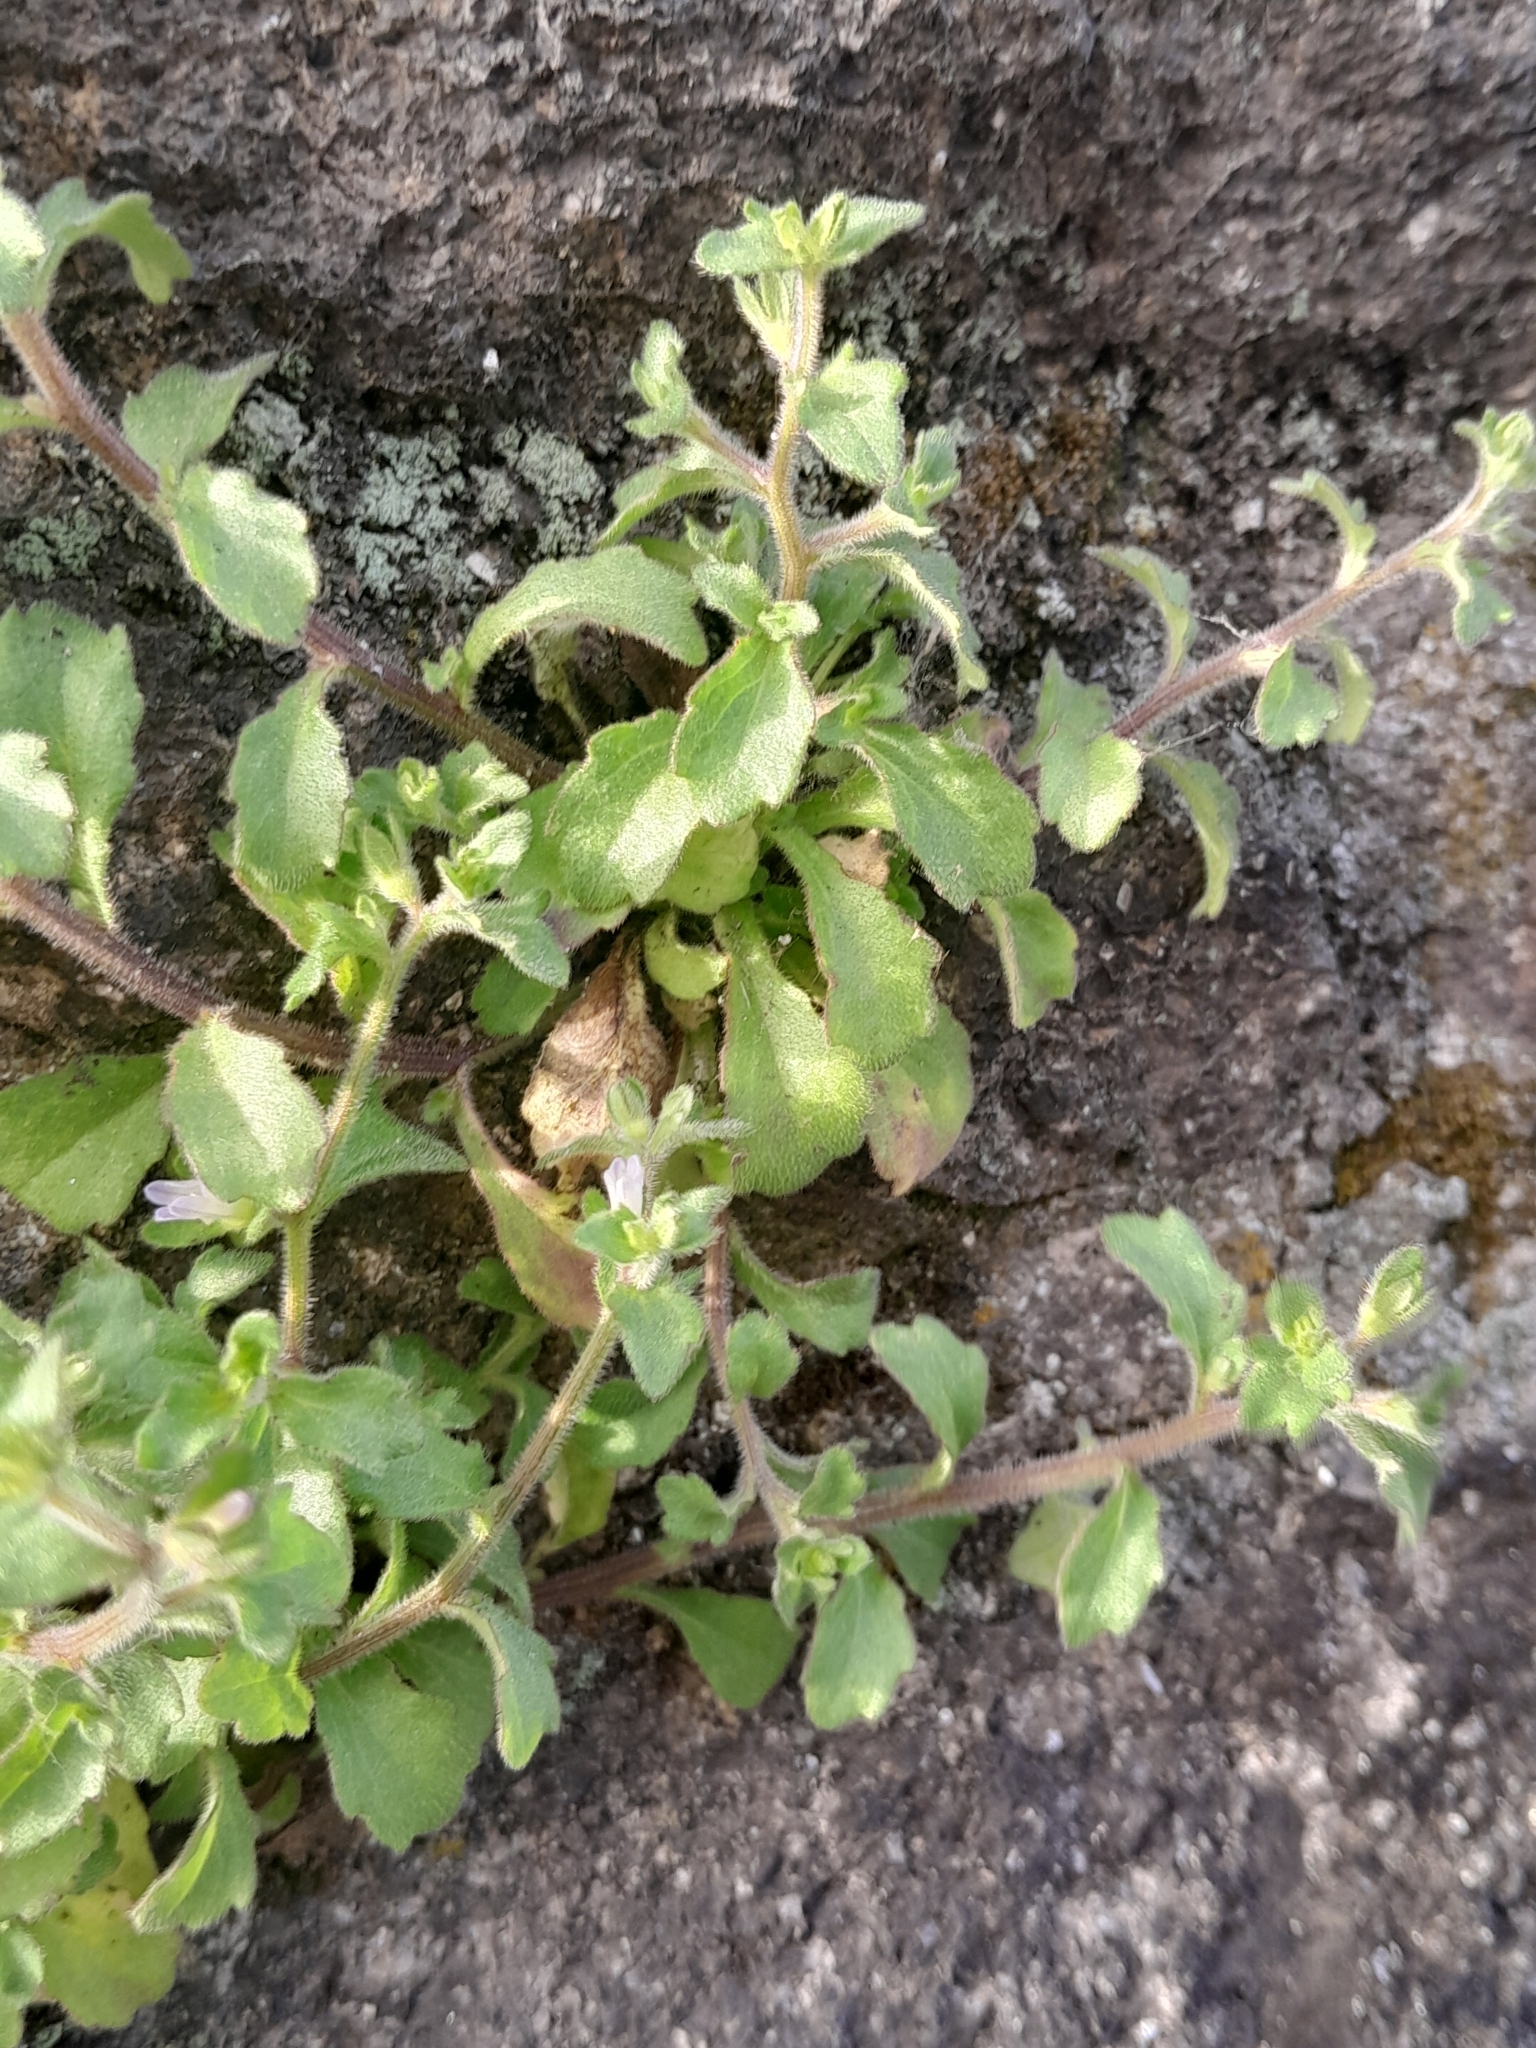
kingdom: Plantae
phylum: Tracheophyta
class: Magnoliopsida
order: Asterales
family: Campanulaceae
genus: Campanula
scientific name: Campanula erinus
